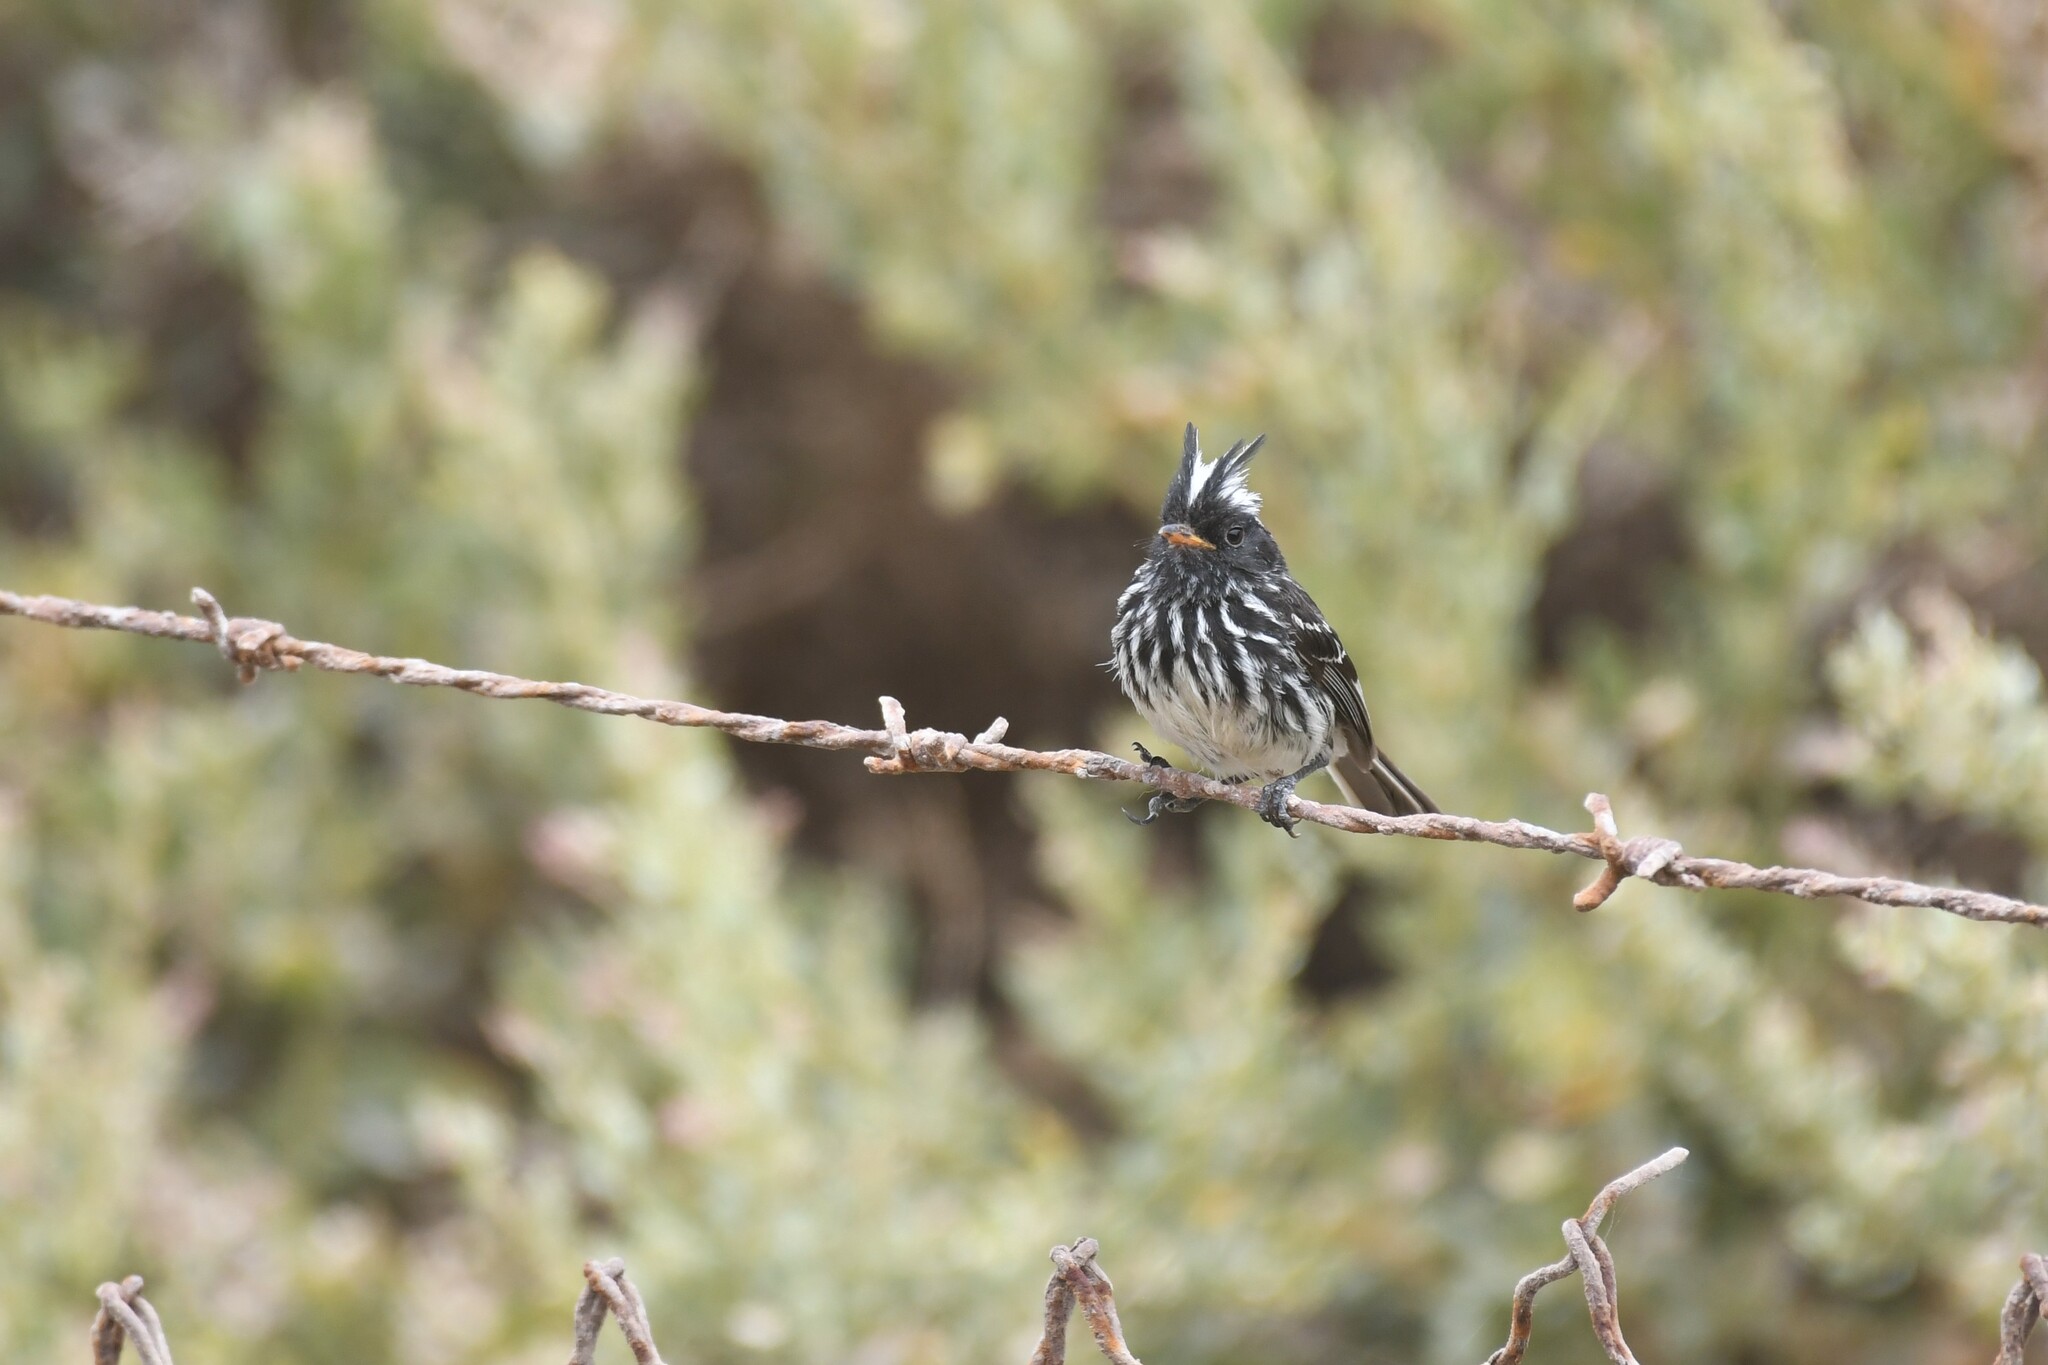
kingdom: Animalia
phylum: Chordata
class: Aves
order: Passeriformes
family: Tyrannidae
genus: Anairetes
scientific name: Anairetes reguloides
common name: Pied-crested tit-tyrant
